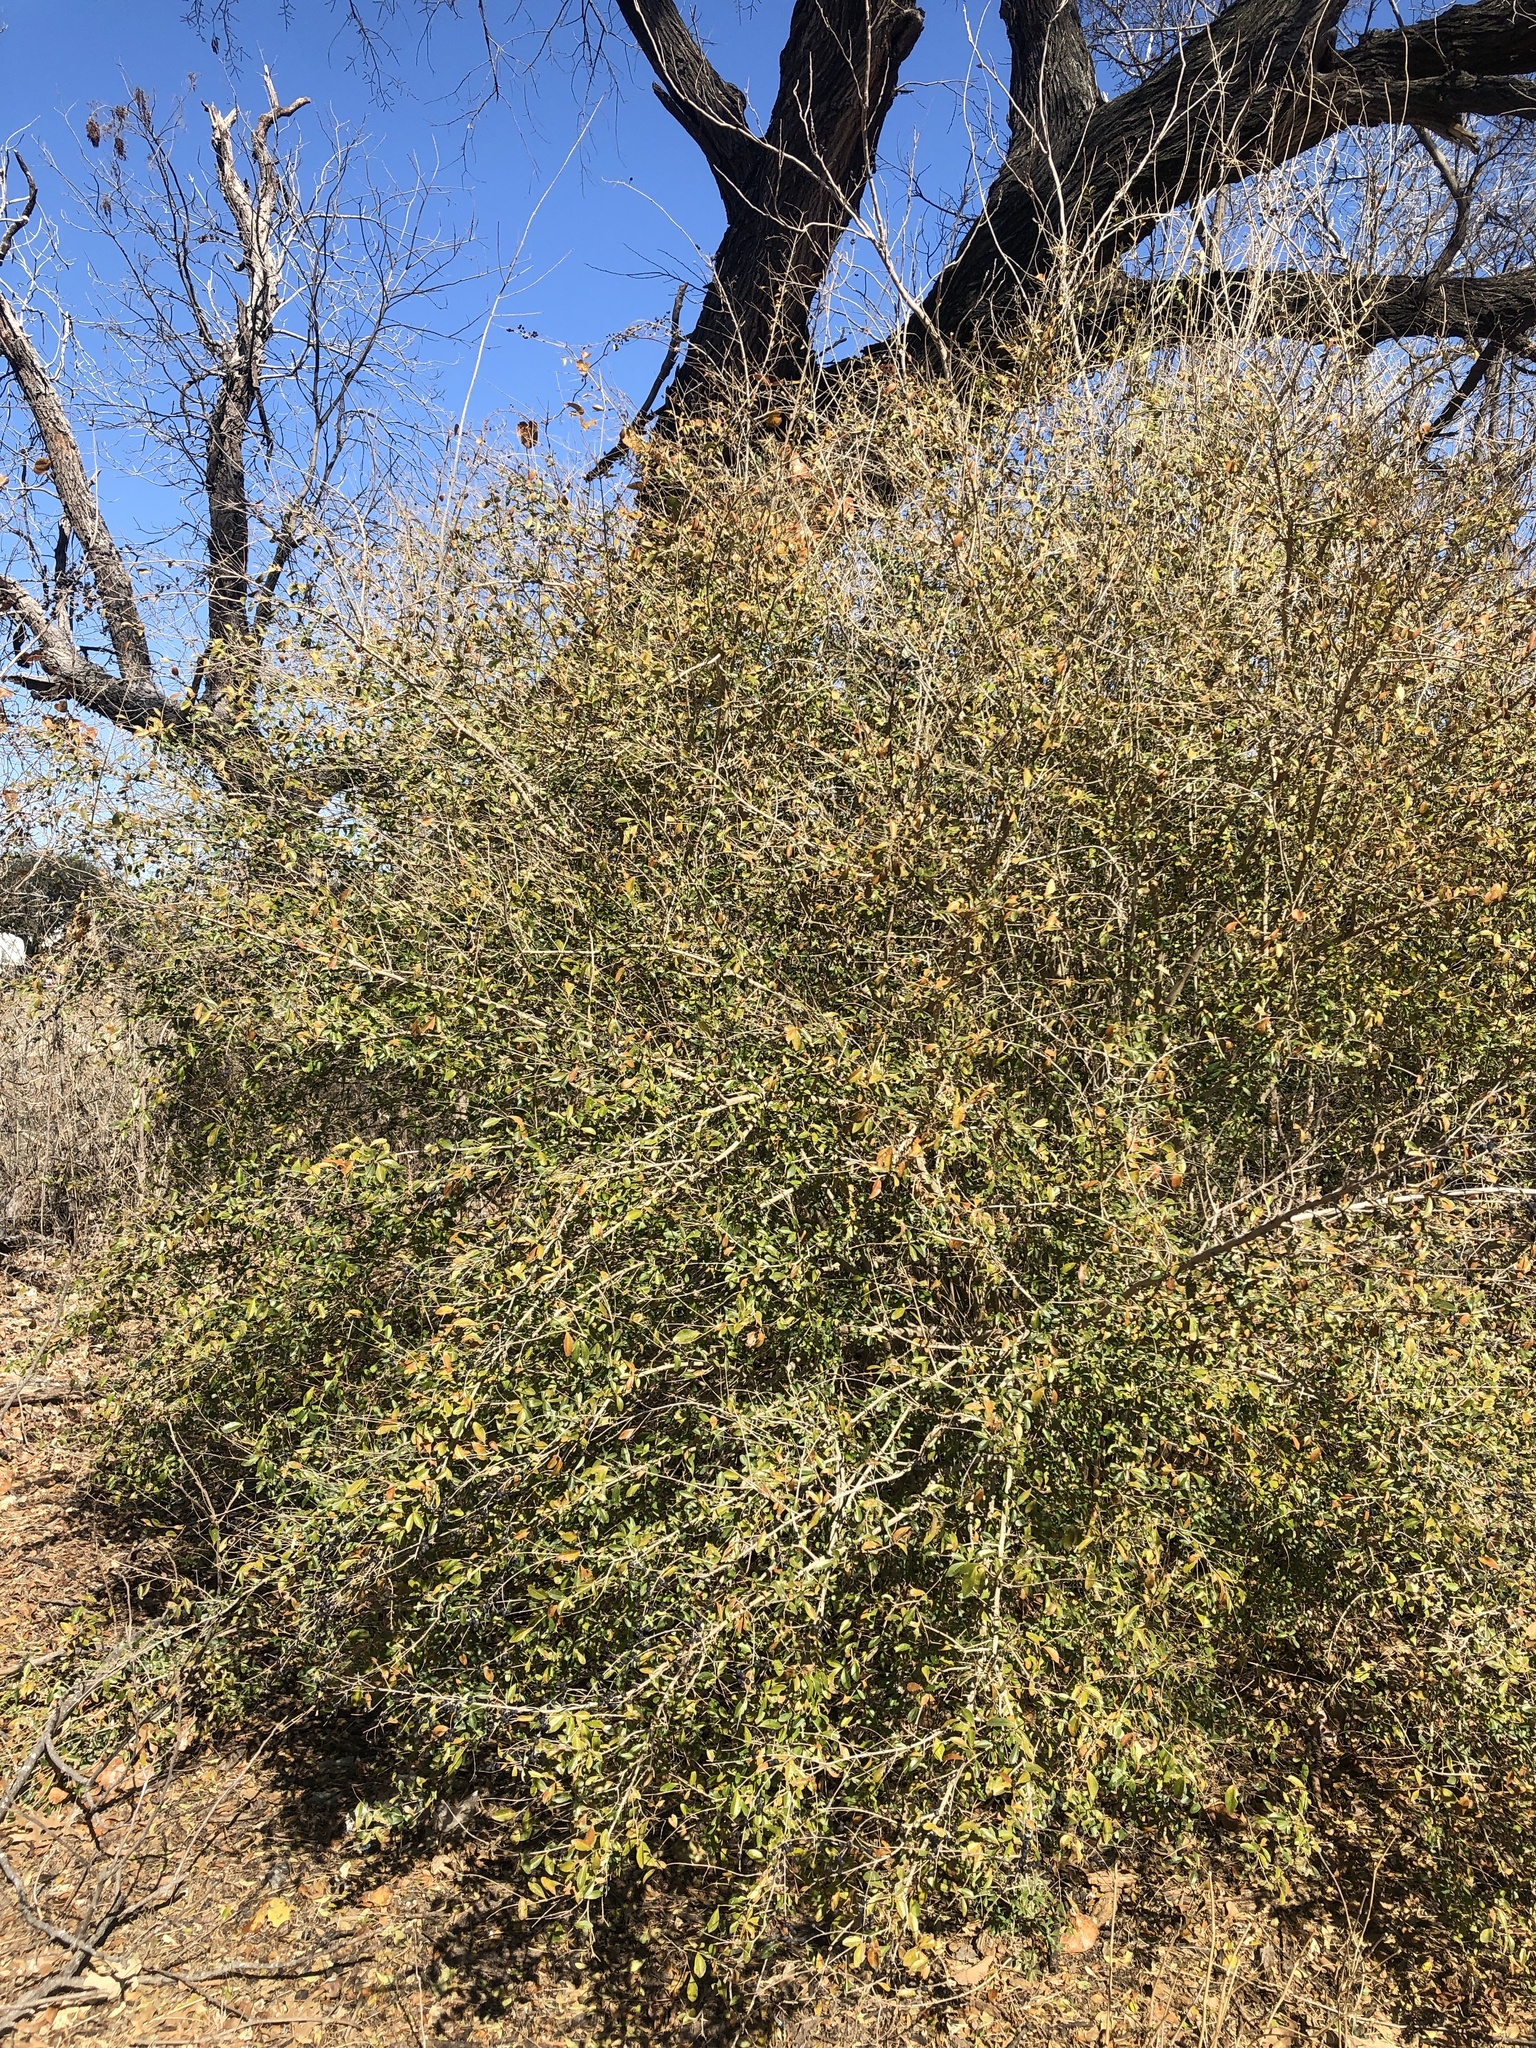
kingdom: Plantae
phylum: Tracheophyta
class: Magnoliopsida
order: Lamiales
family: Oleaceae
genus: Ligustrum
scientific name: Ligustrum quihoui
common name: Waxyleaf privet
